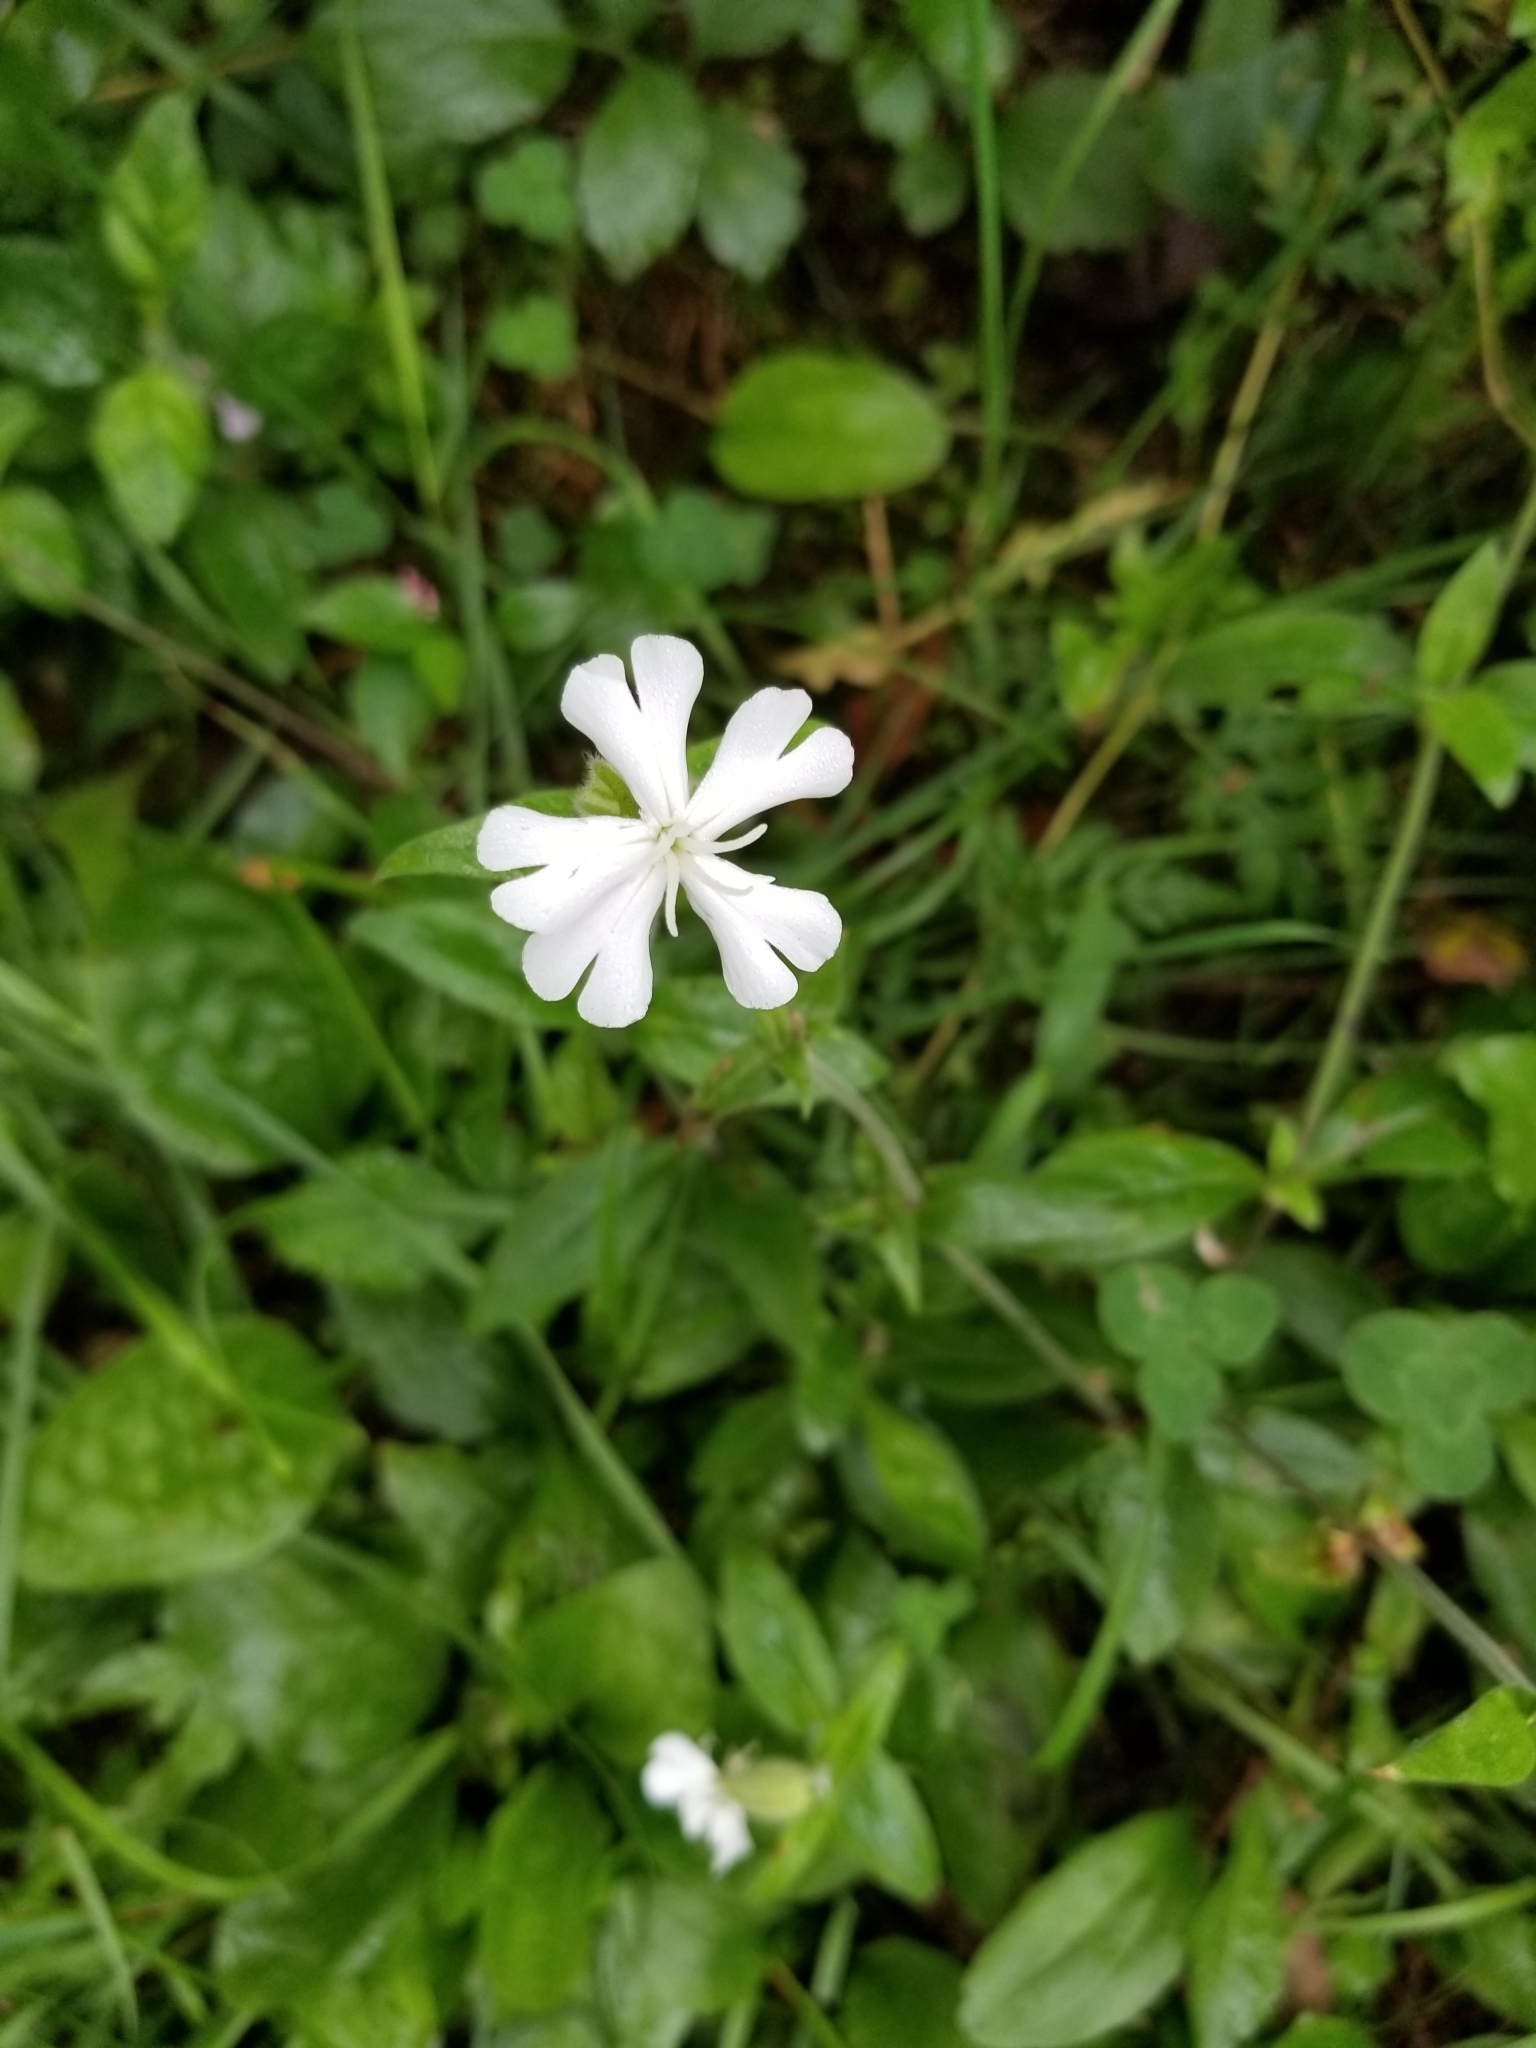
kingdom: Plantae
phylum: Tracheophyta
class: Magnoliopsida
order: Caryophyllales
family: Caryophyllaceae
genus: Silene
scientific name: Silene latifolia
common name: White campion
